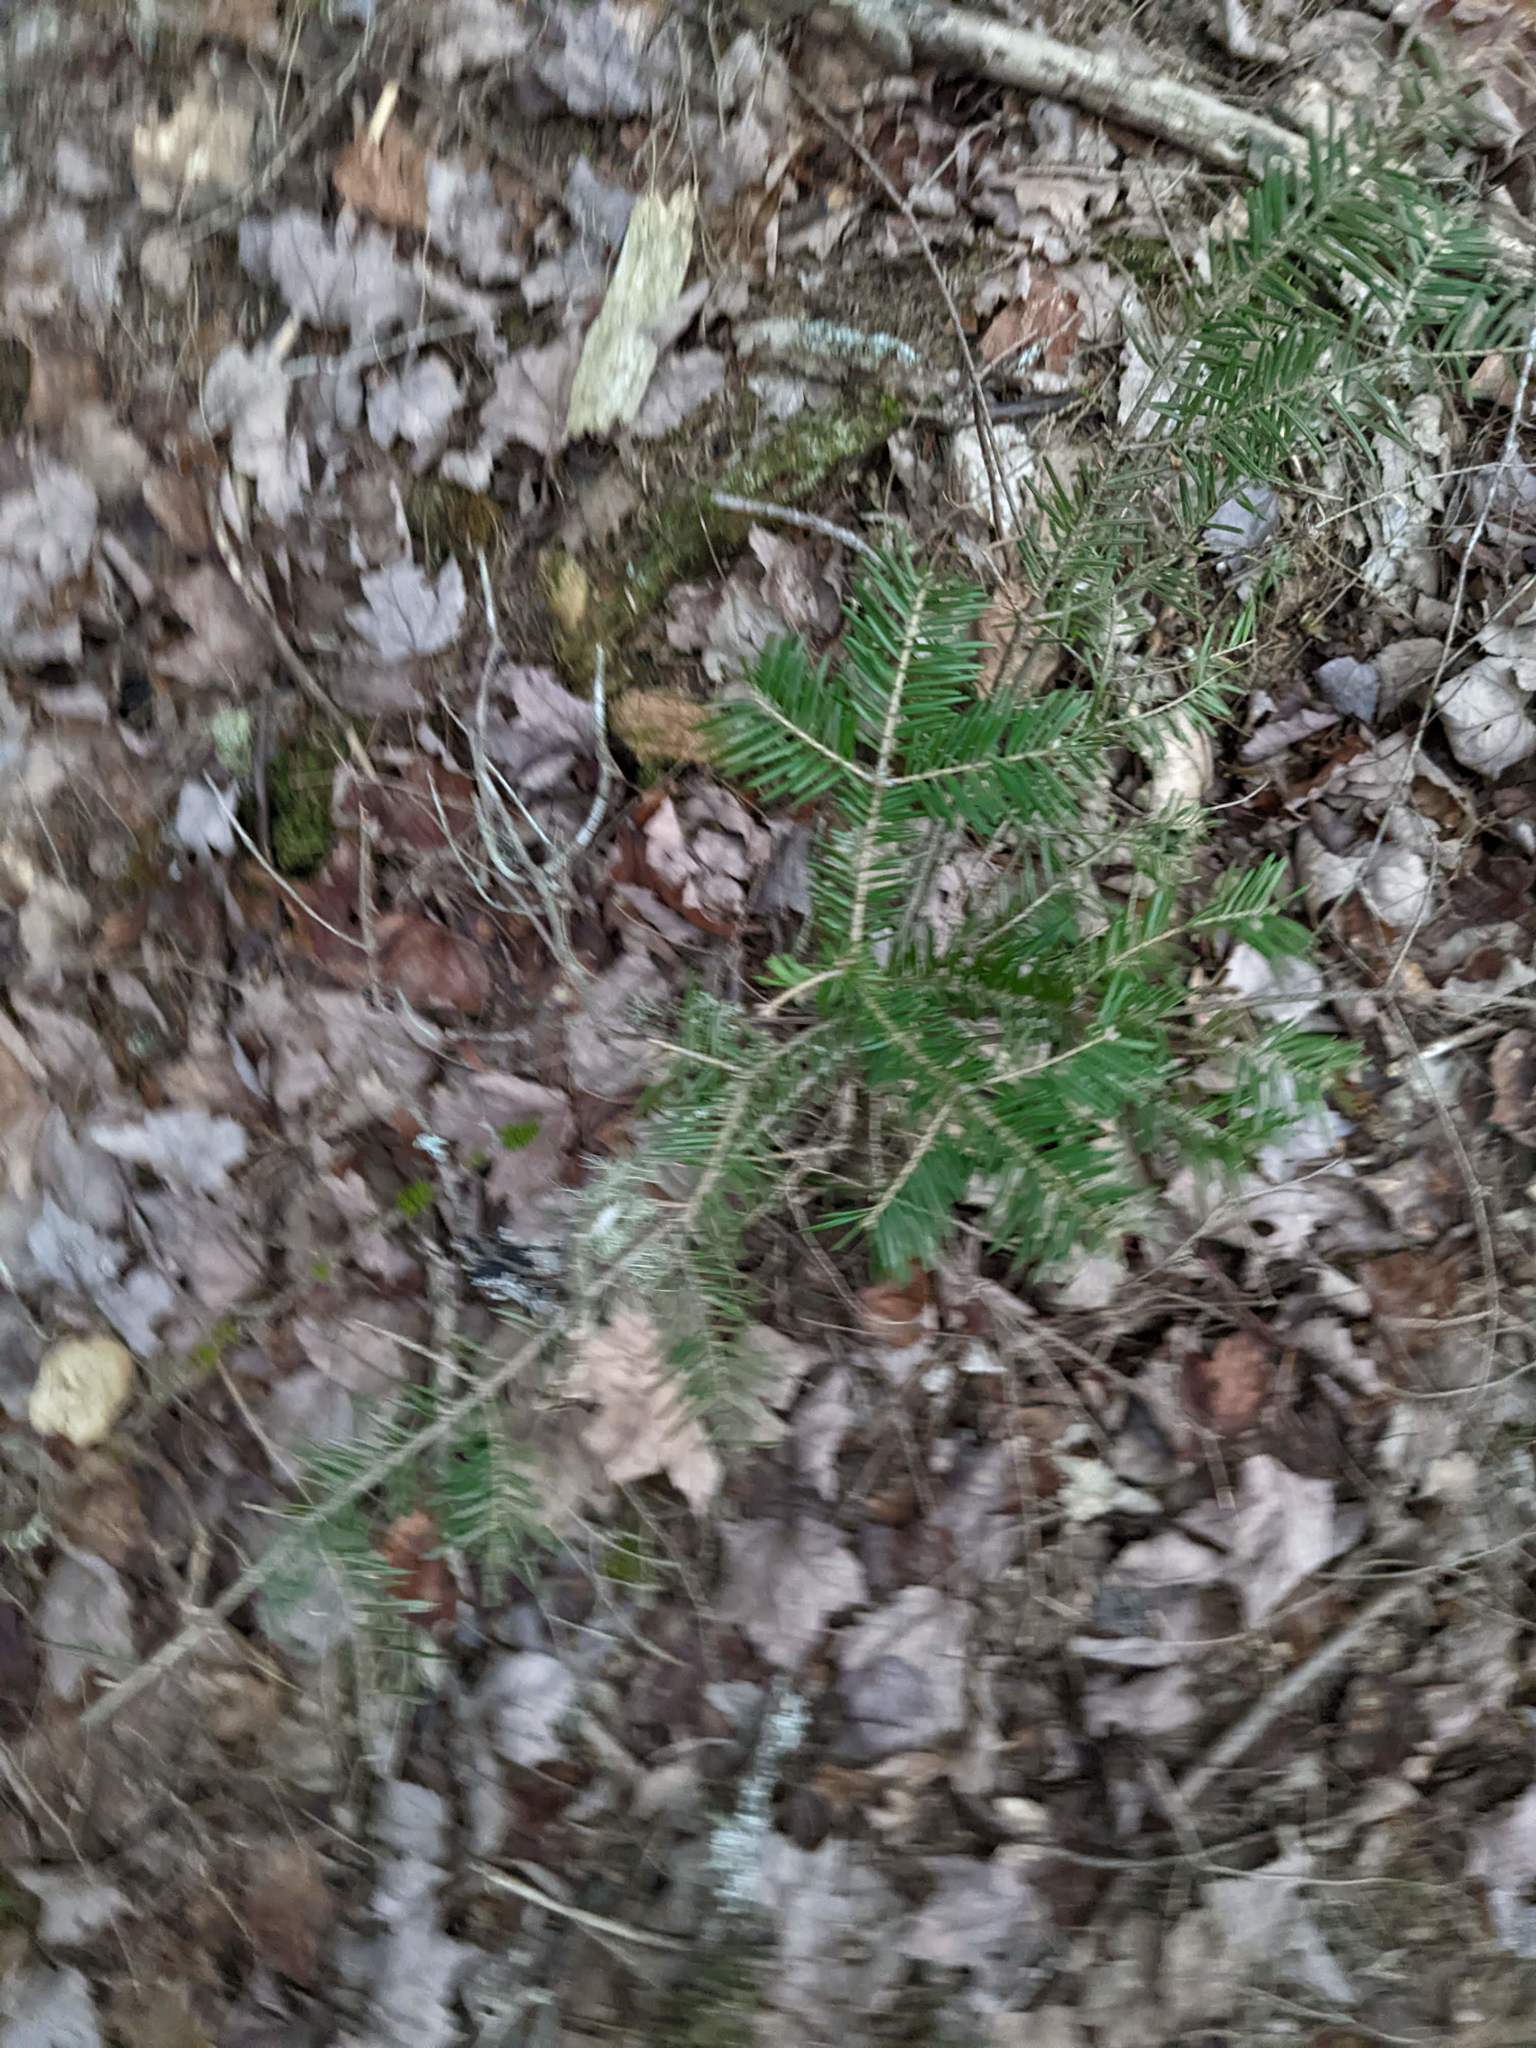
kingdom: Plantae
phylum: Tracheophyta
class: Pinopsida
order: Pinales
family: Pinaceae
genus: Abies
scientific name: Abies balsamea
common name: Balsam fir
